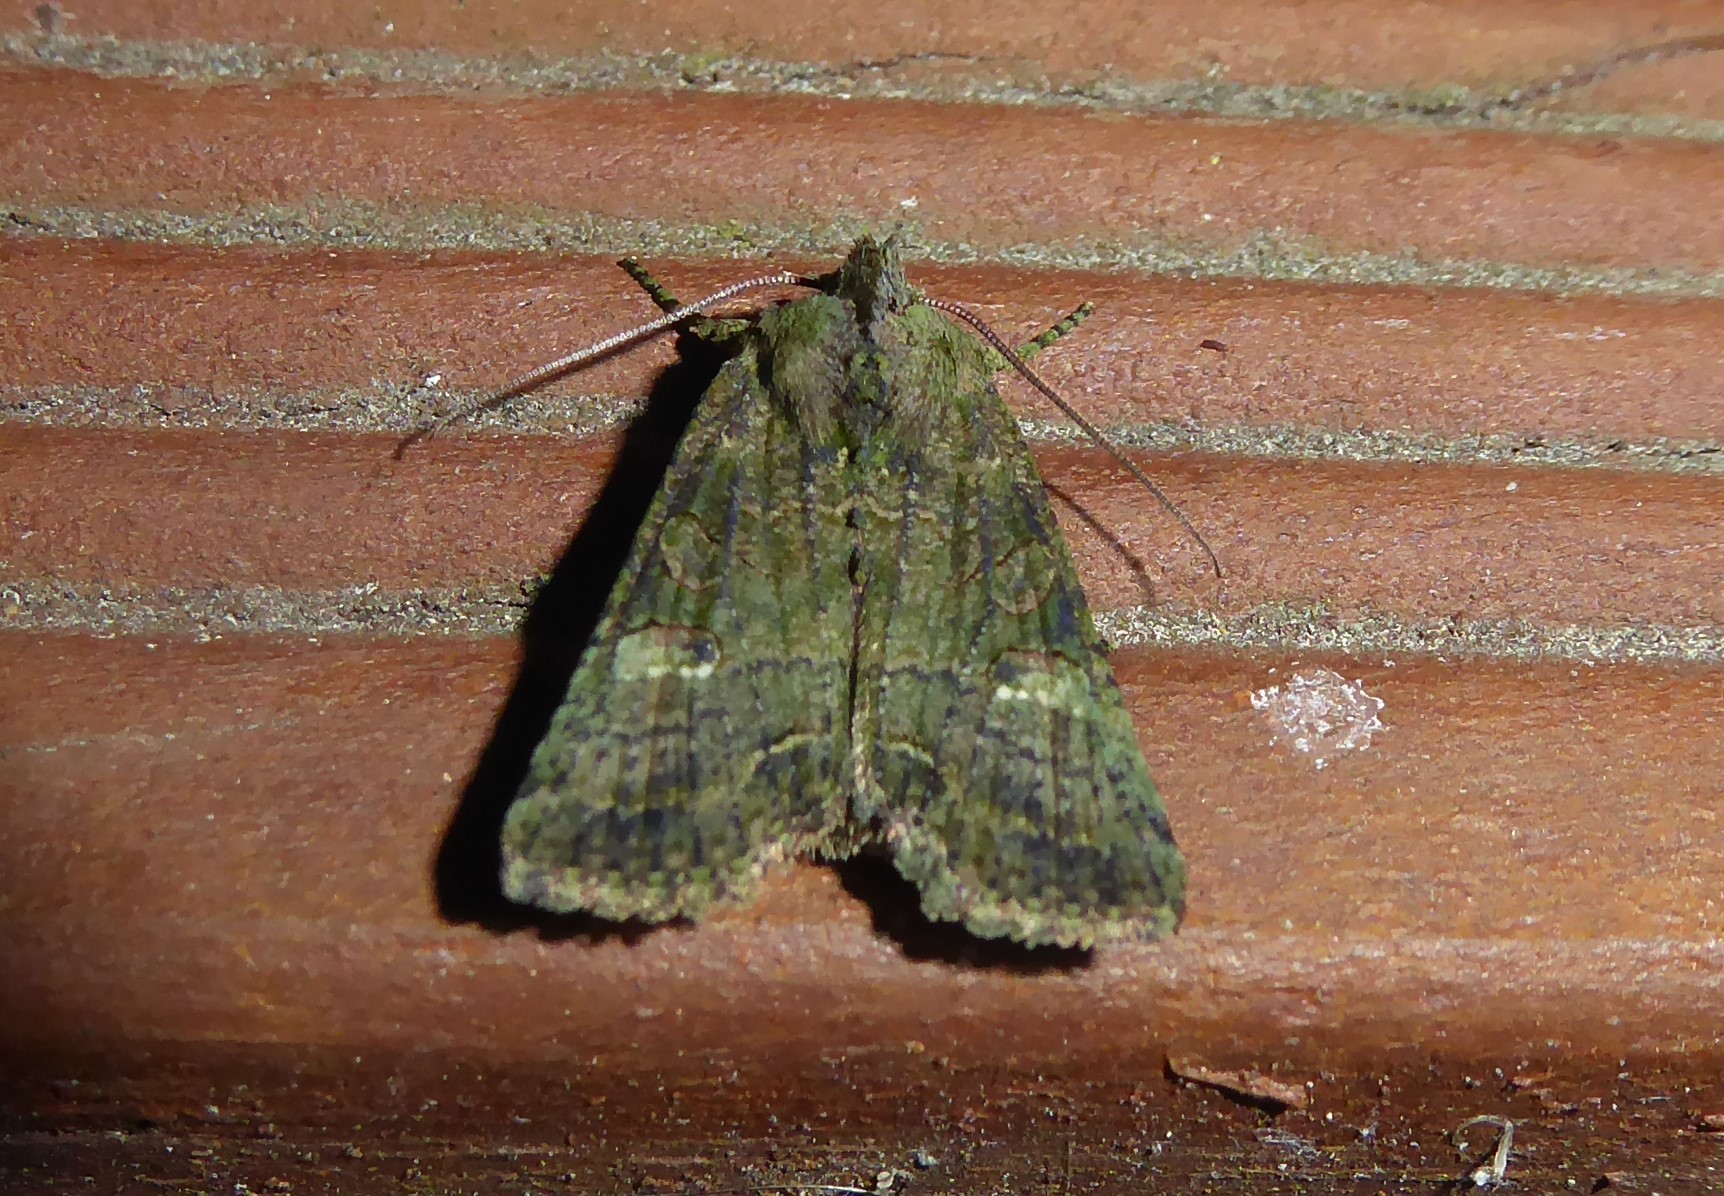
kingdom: Animalia
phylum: Arthropoda
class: Insecta
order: Lepidoptera
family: Noctuidae
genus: Meterana
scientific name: Meterana levis
